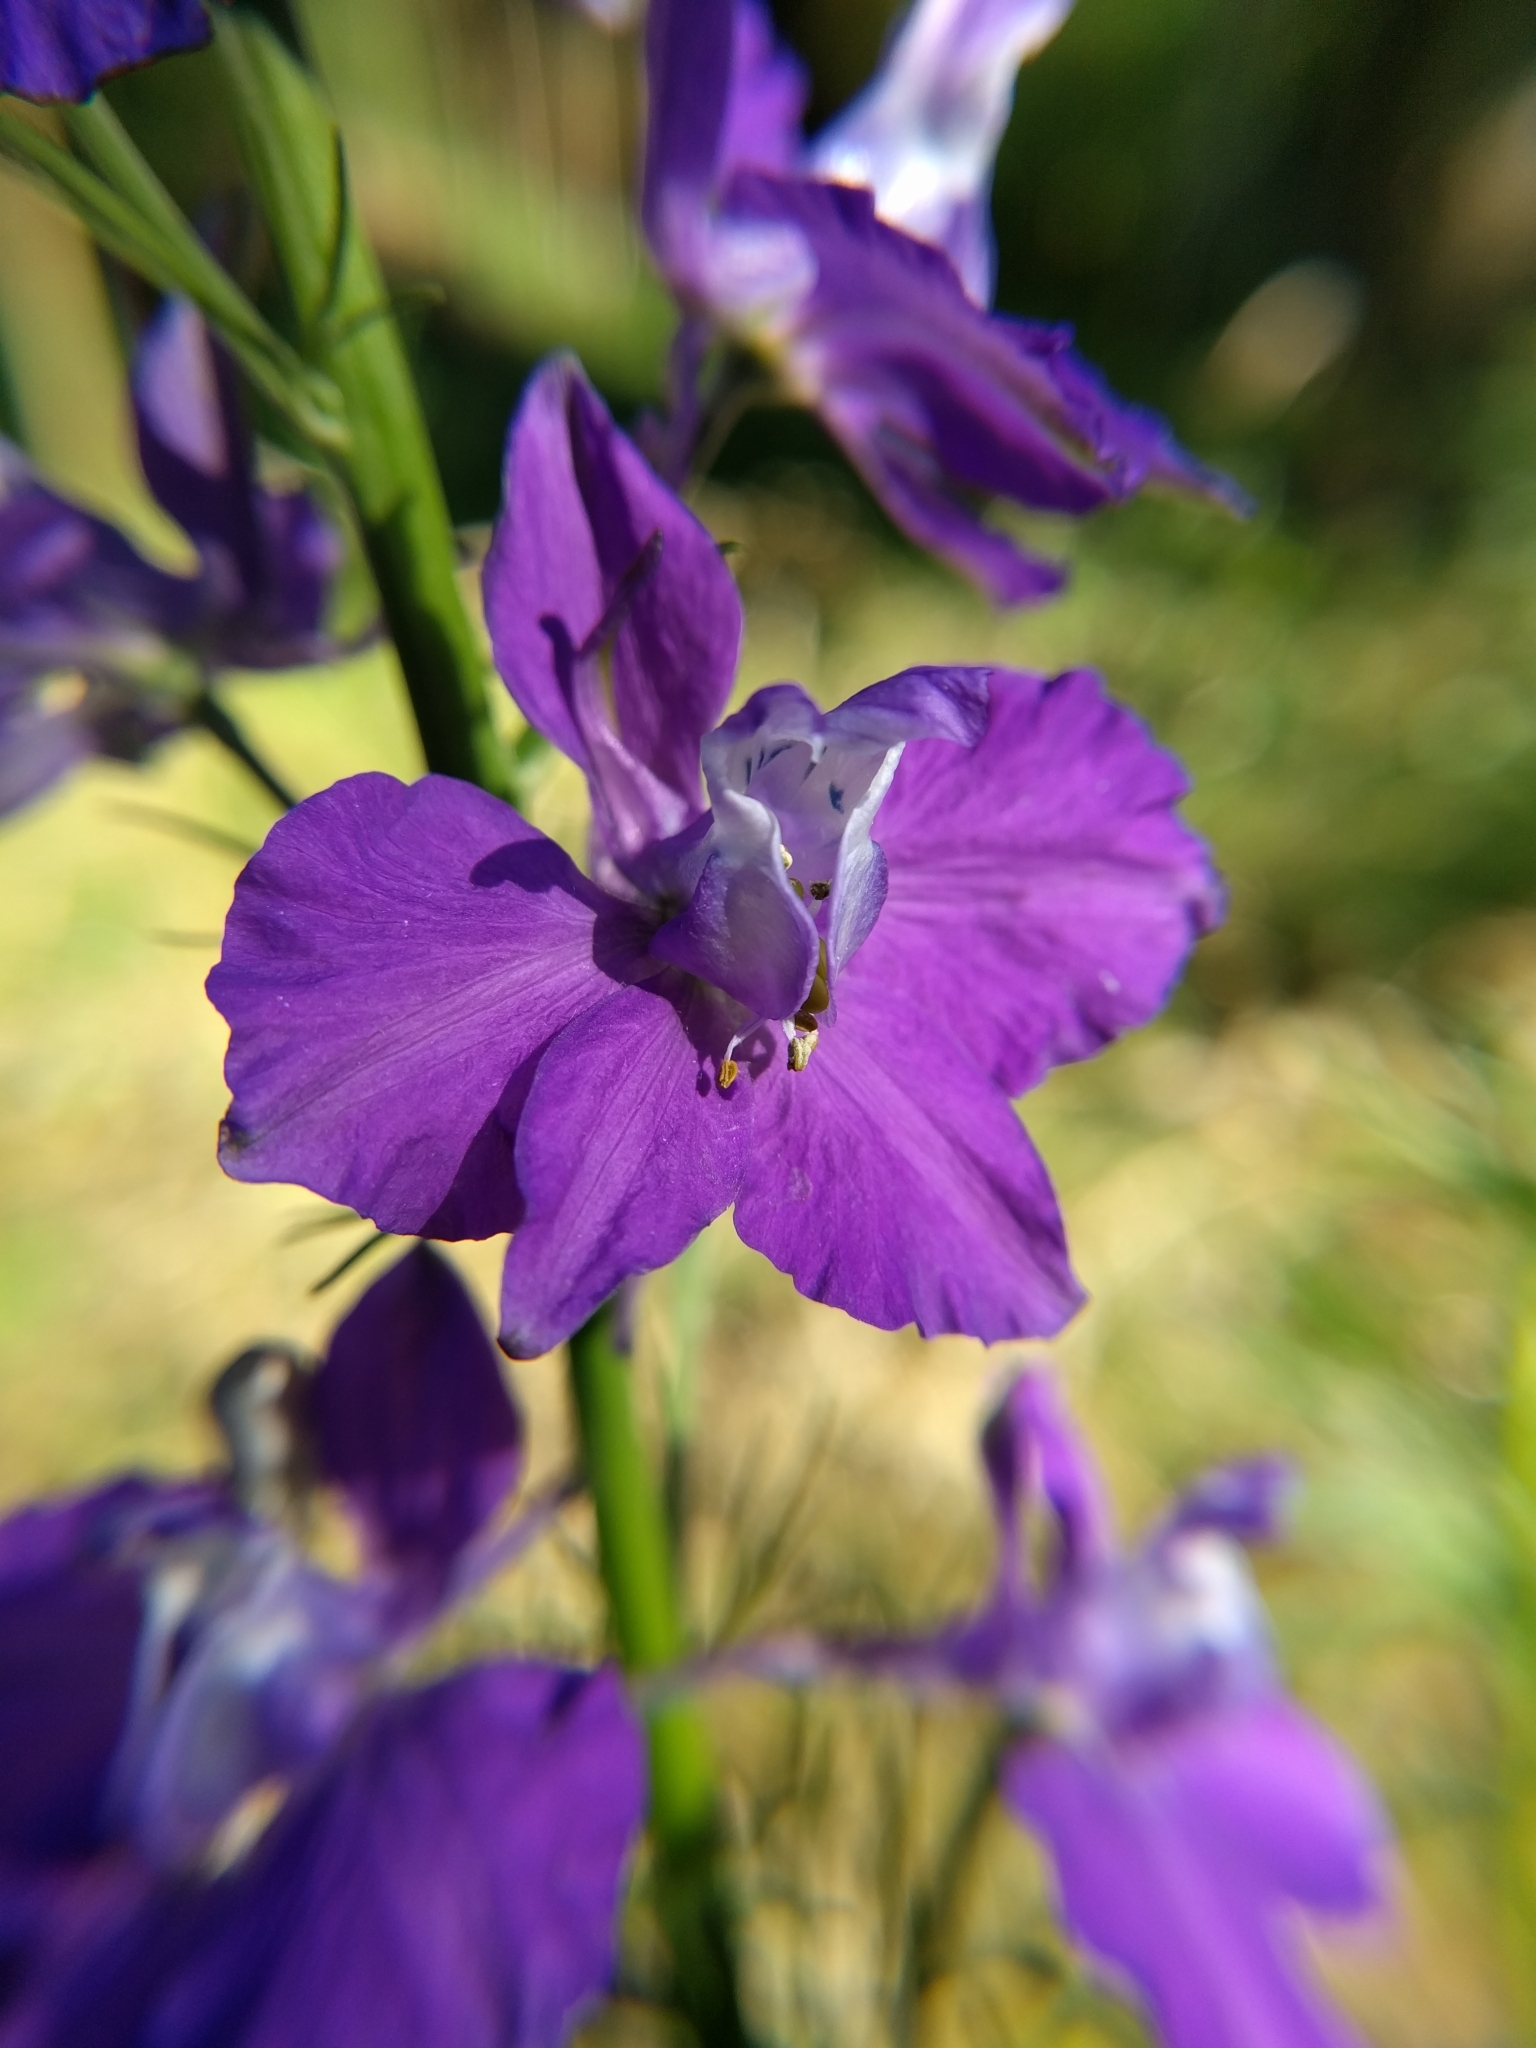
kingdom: Plantae
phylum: Tracheophyta
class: Magnoliopsida
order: Ranunculales
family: Ranunculaceae
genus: Delphinium
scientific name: Delphinium ajacis
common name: Doubtful knight's-spur
